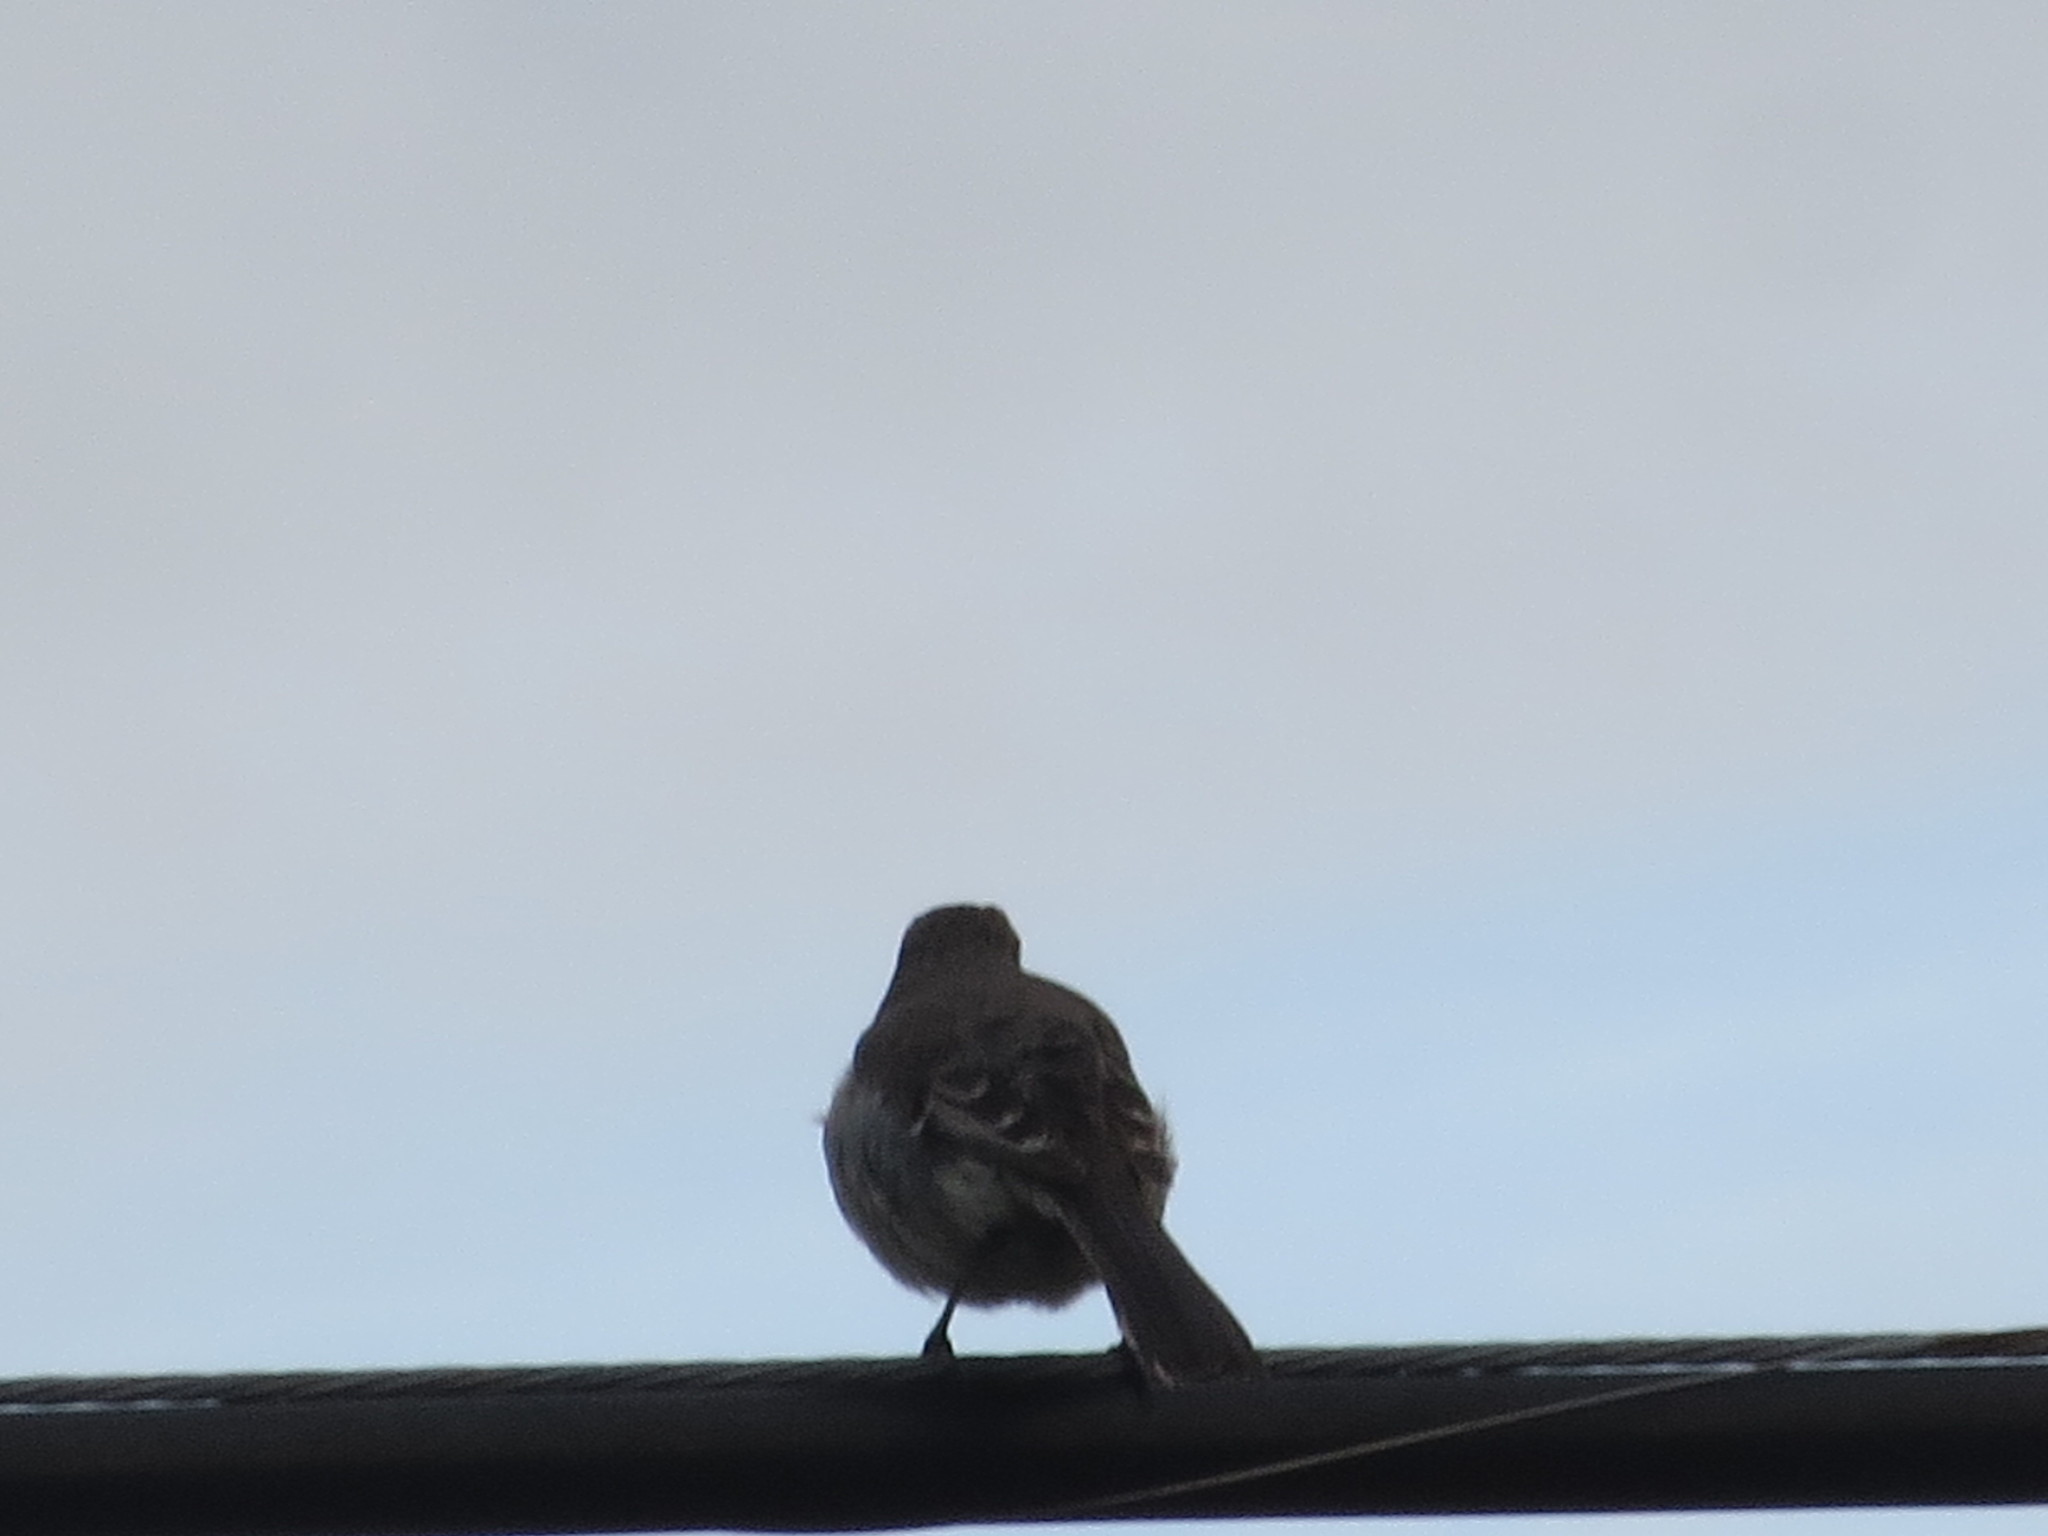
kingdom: Animalia
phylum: Chordata
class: Aves
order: Passeriformes
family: Mimidae
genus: Mimus
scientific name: Mimus polyglottos
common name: Northern mockingbird
